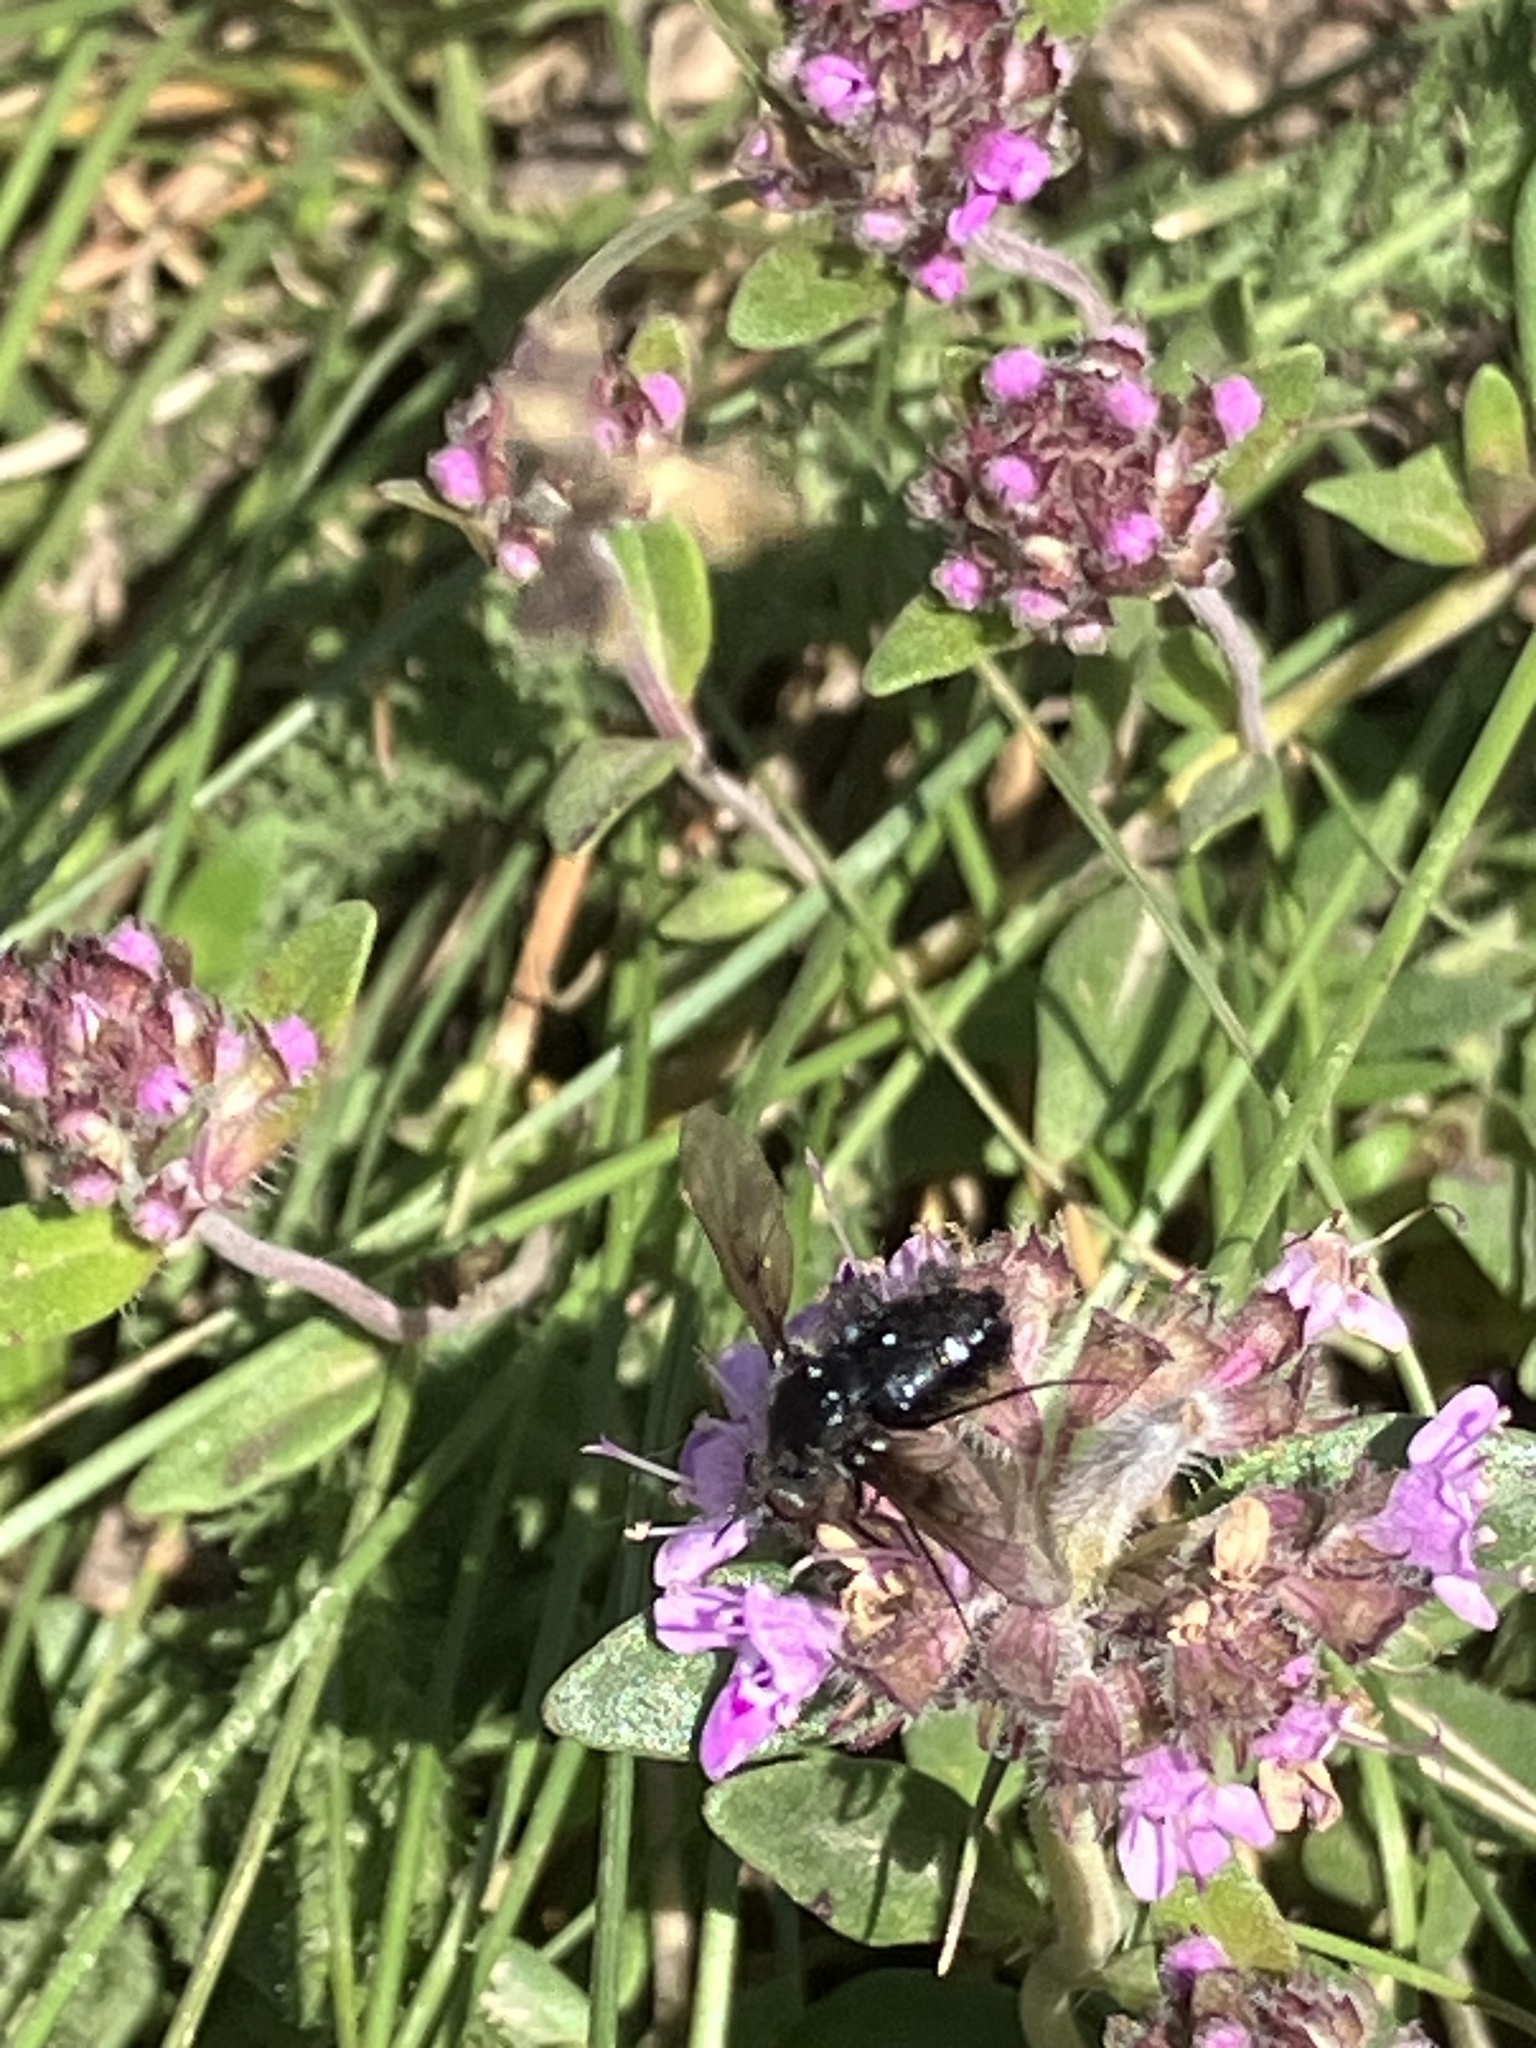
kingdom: Animalia
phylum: Arthropoda
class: Insecta
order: Diptera
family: Bombyliidae
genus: Bombylella
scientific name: Bombylella atra
